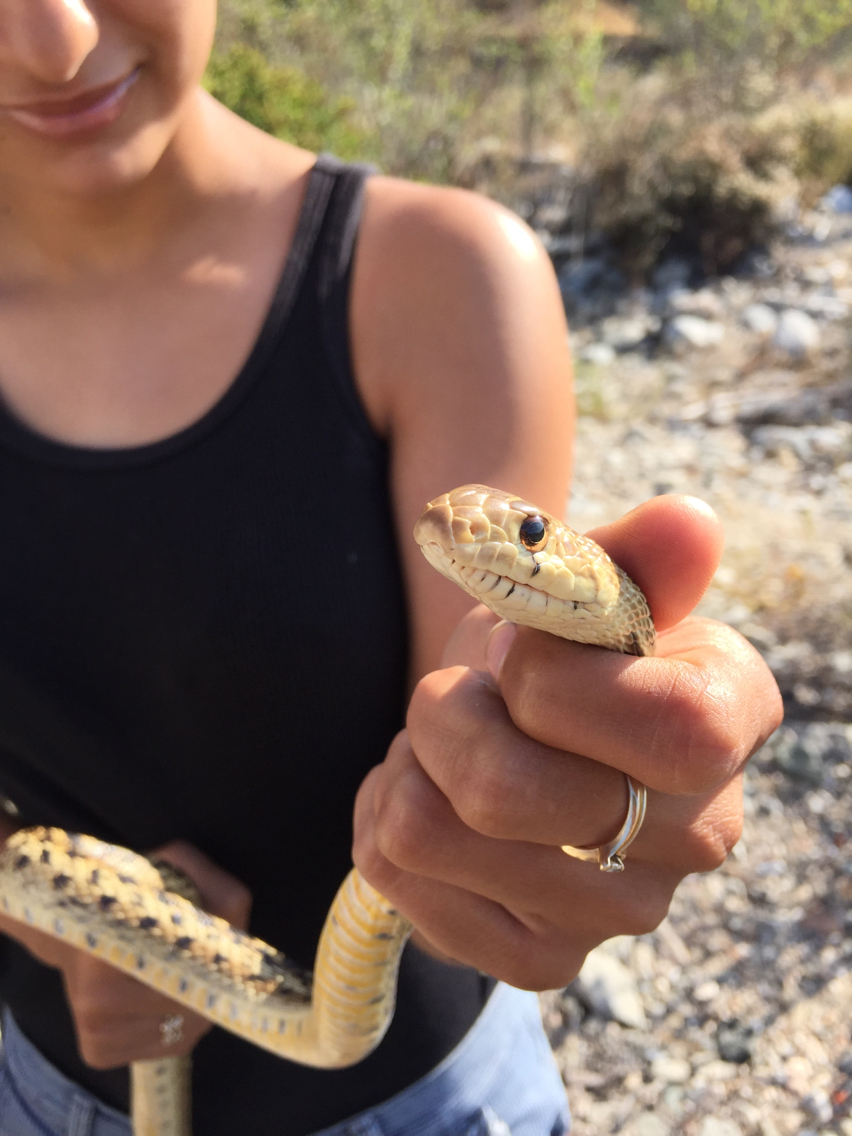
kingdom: Animalia
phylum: Chordata
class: Squamata
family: Colubridae
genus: Pituophis
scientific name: Pituophis catenifer
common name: Gopher snake
